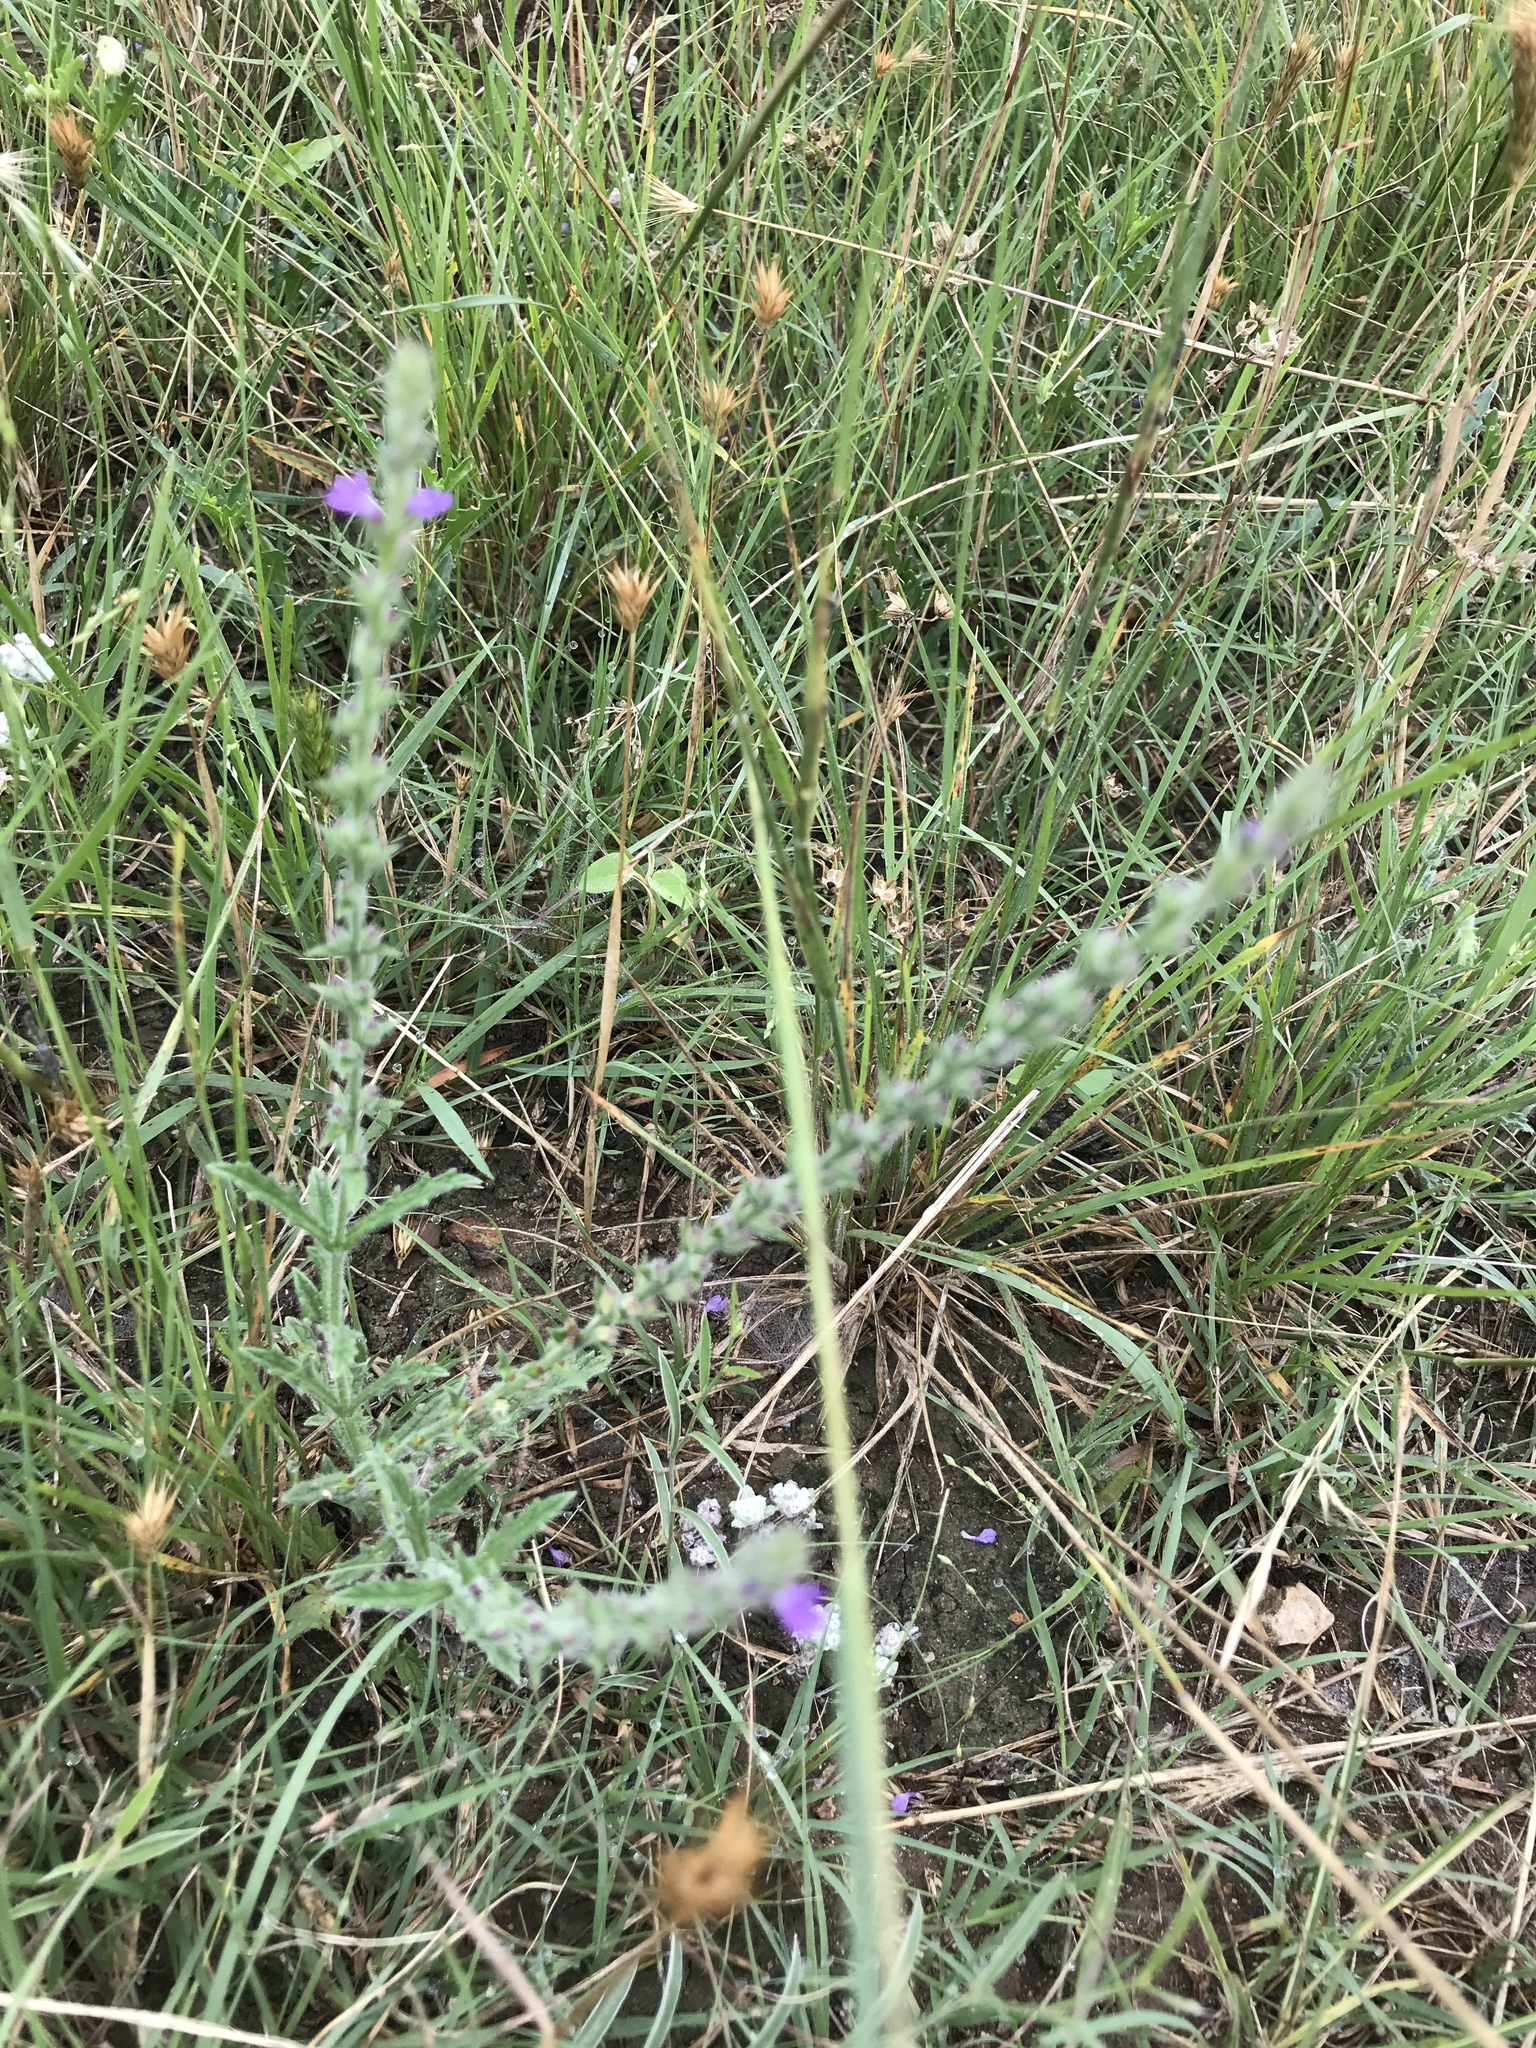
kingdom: Plantae
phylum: Tracheophyta
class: Magnoliopsida
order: Lamiales
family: Verbenaceae
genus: Verbena
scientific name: Verbena canescens
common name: Gray vervain
